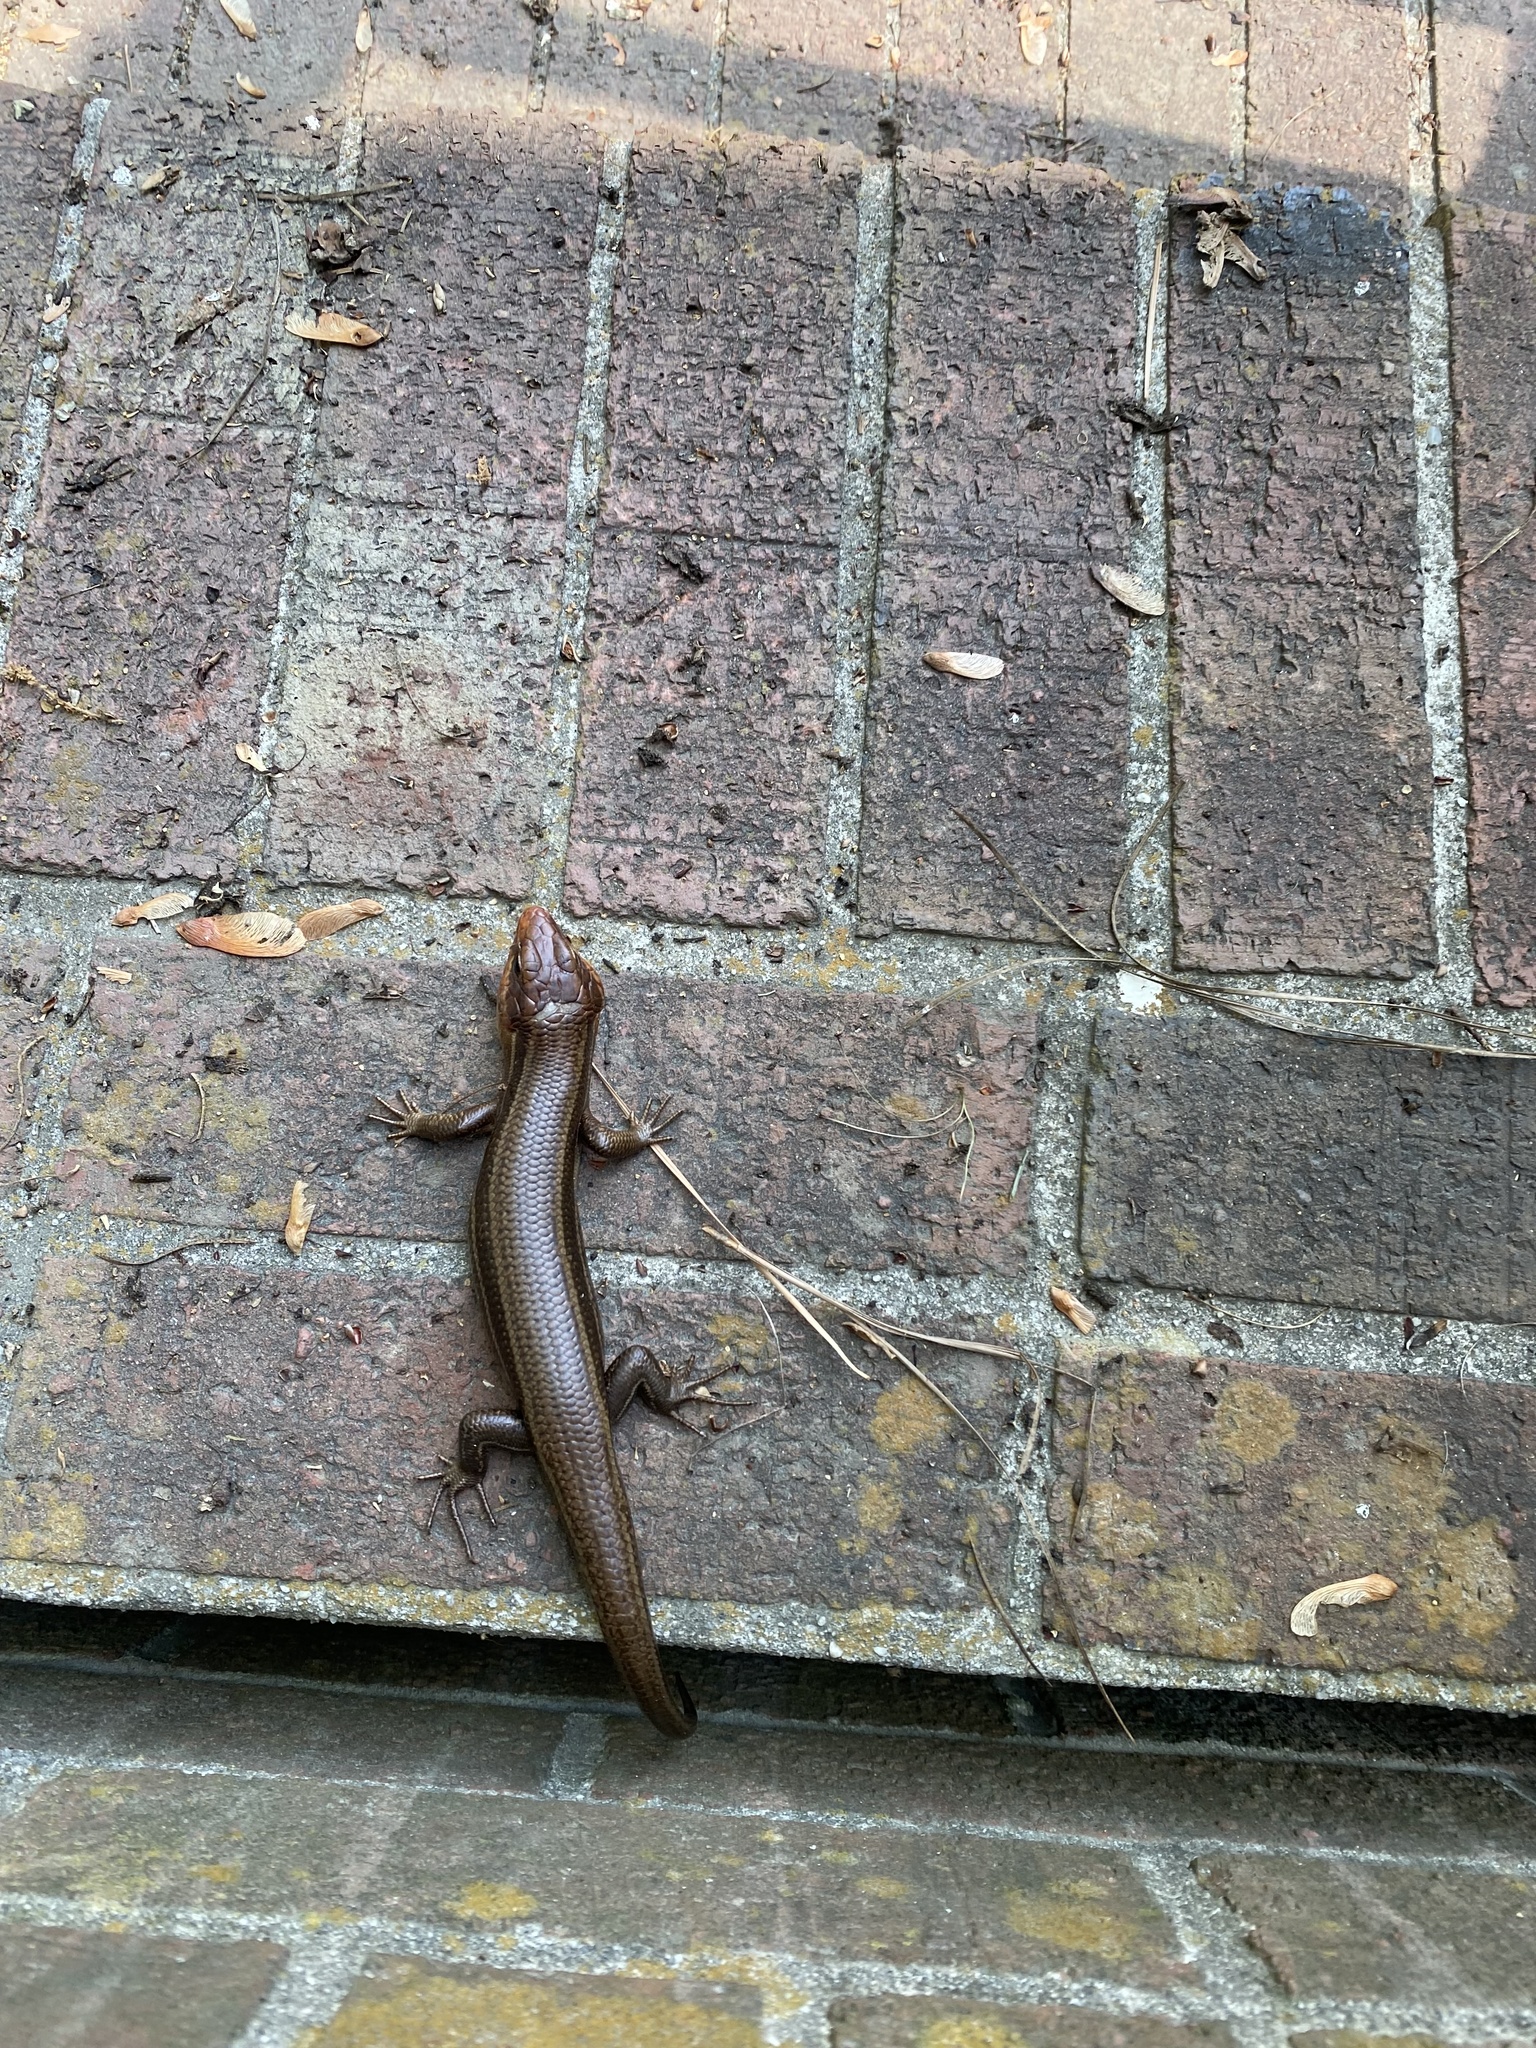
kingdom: Animalia
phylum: Chordata
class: Squamata
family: Scincidae
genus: Plestiodon
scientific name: Plestiodon laticeps
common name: Broadhead skink
